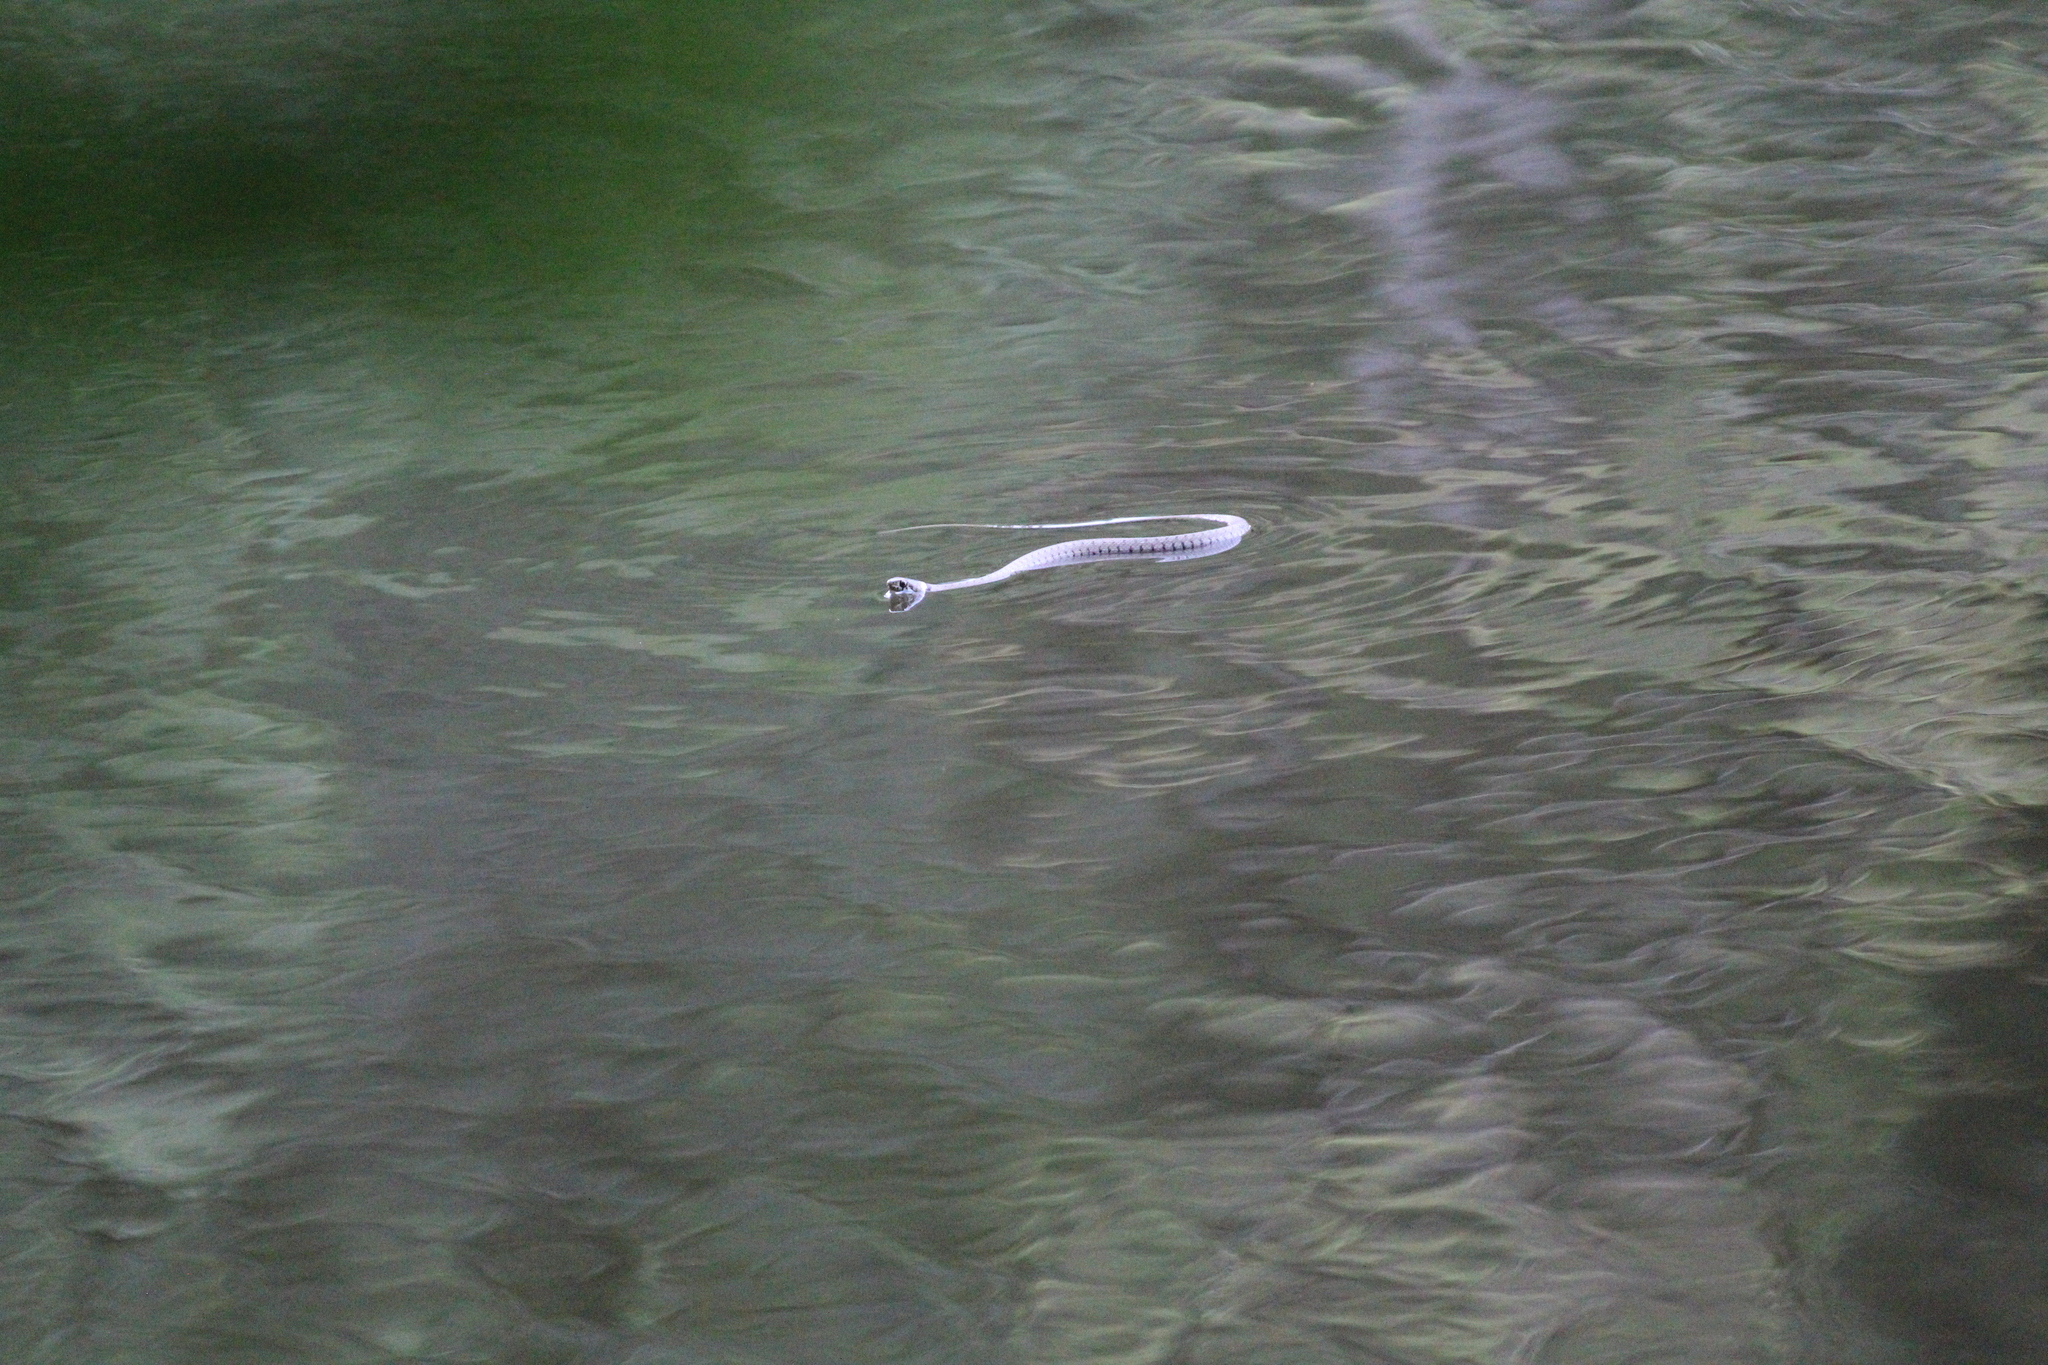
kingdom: Animalia
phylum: Chordata
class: Squamata
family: Colubridae
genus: Natrix
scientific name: Natrix helvetica
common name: Banded grass snake
